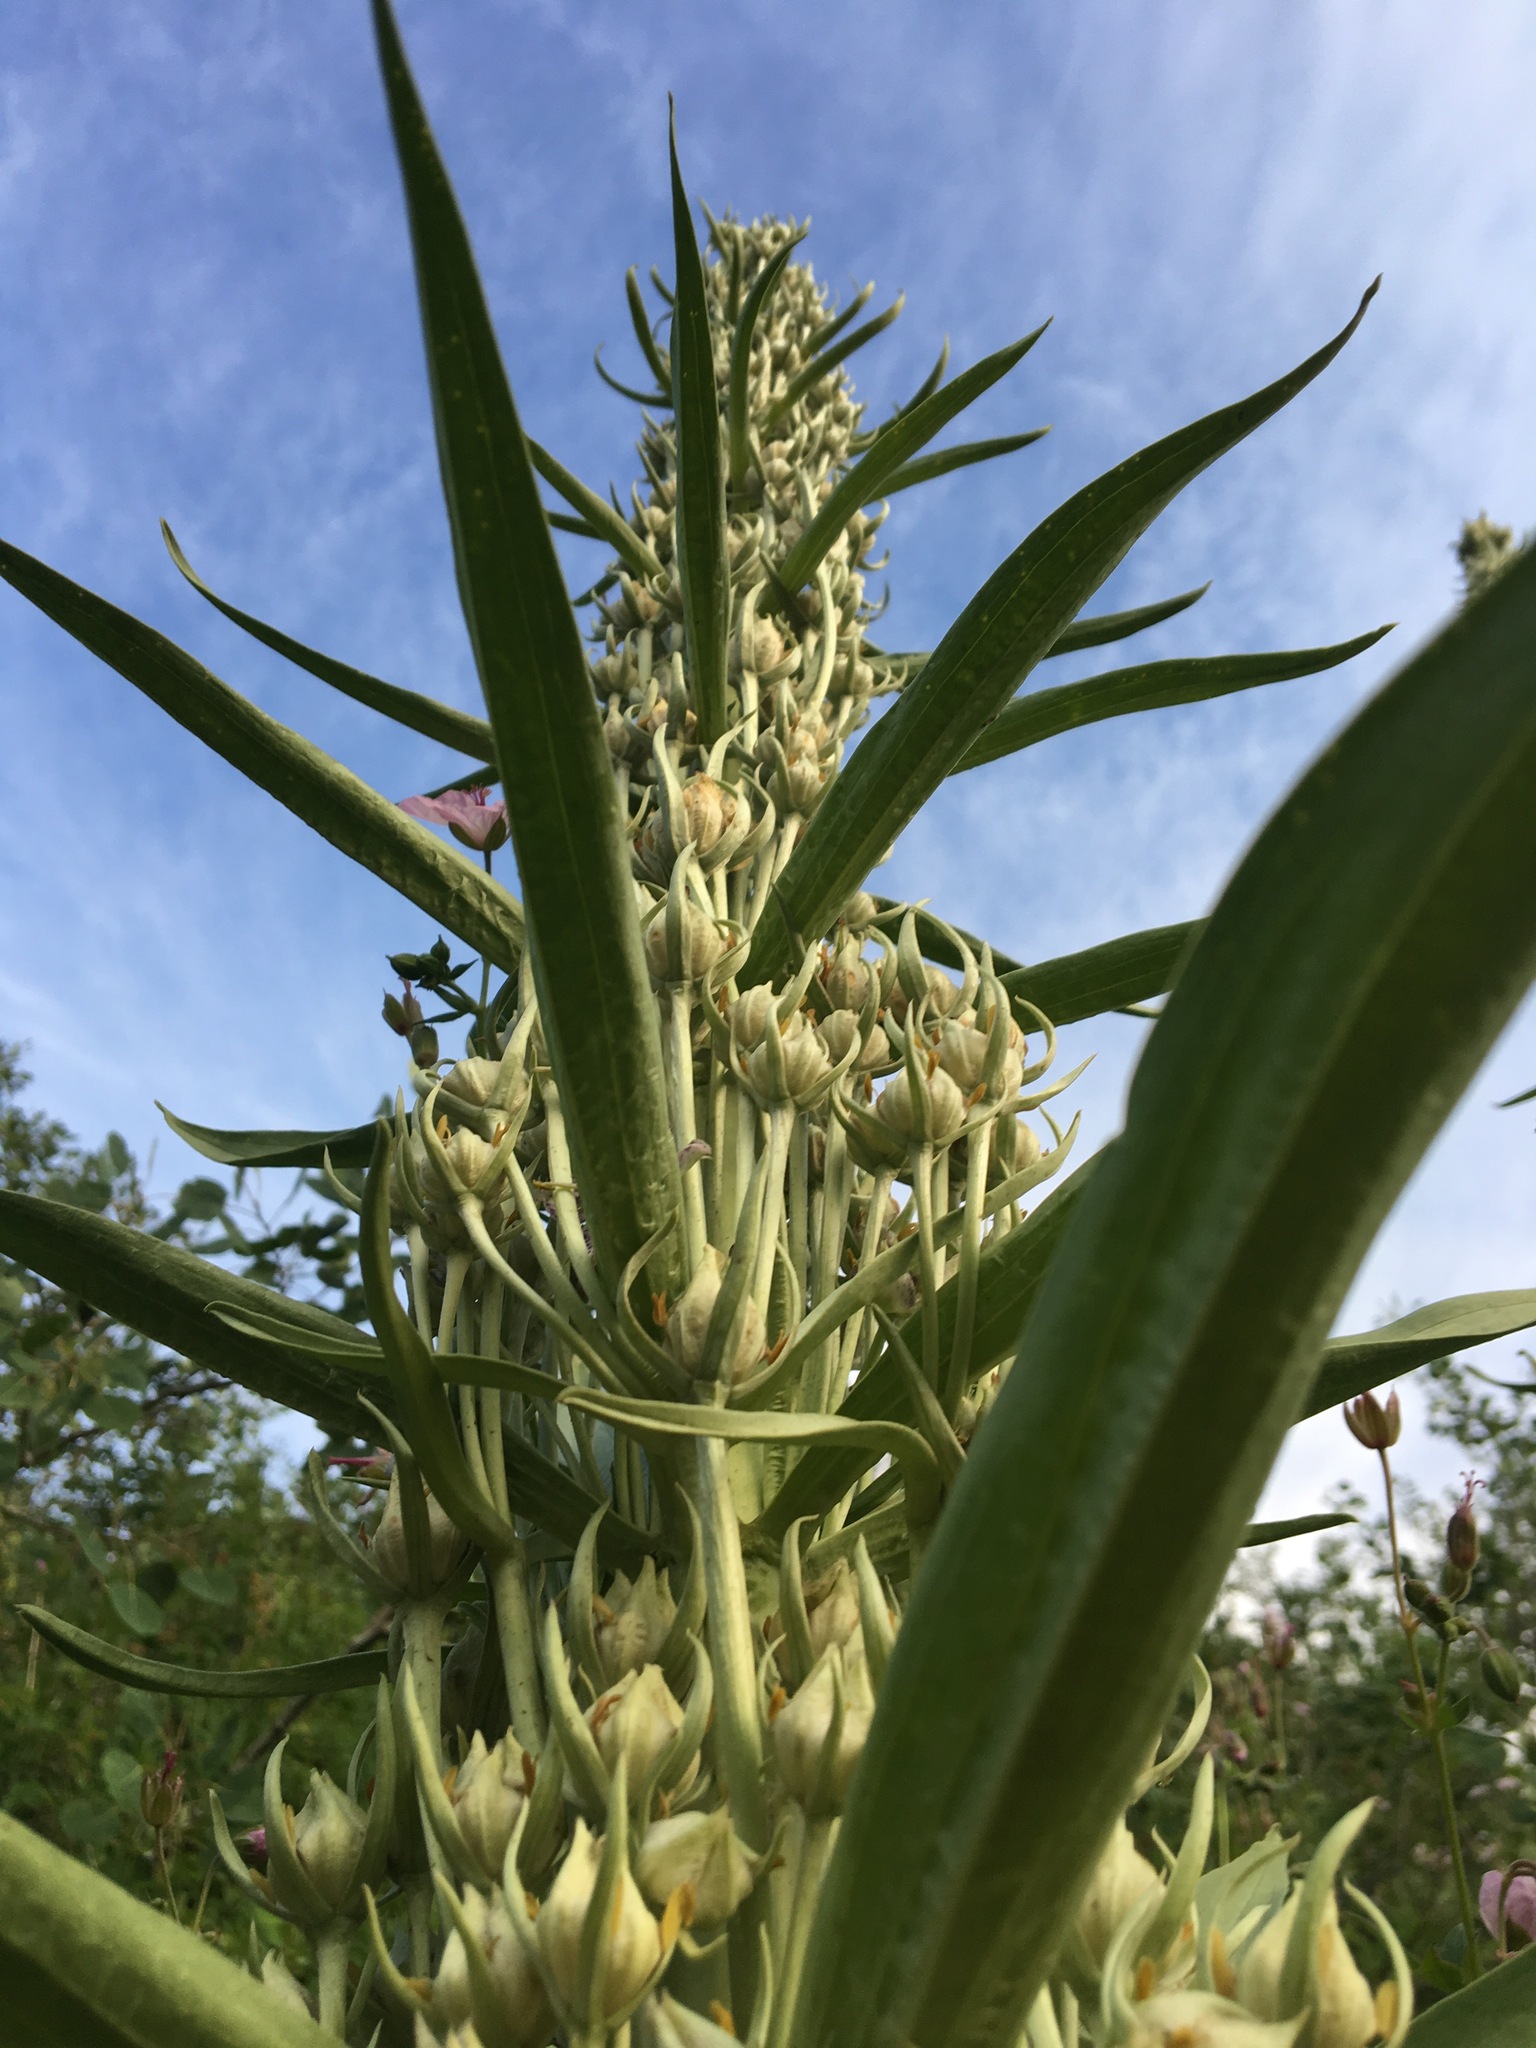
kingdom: Plantae
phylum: Tracheophyta
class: Magnoliopsida
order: Gentianales
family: Gentianaceae
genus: Frasera
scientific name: Frasera speciosa
